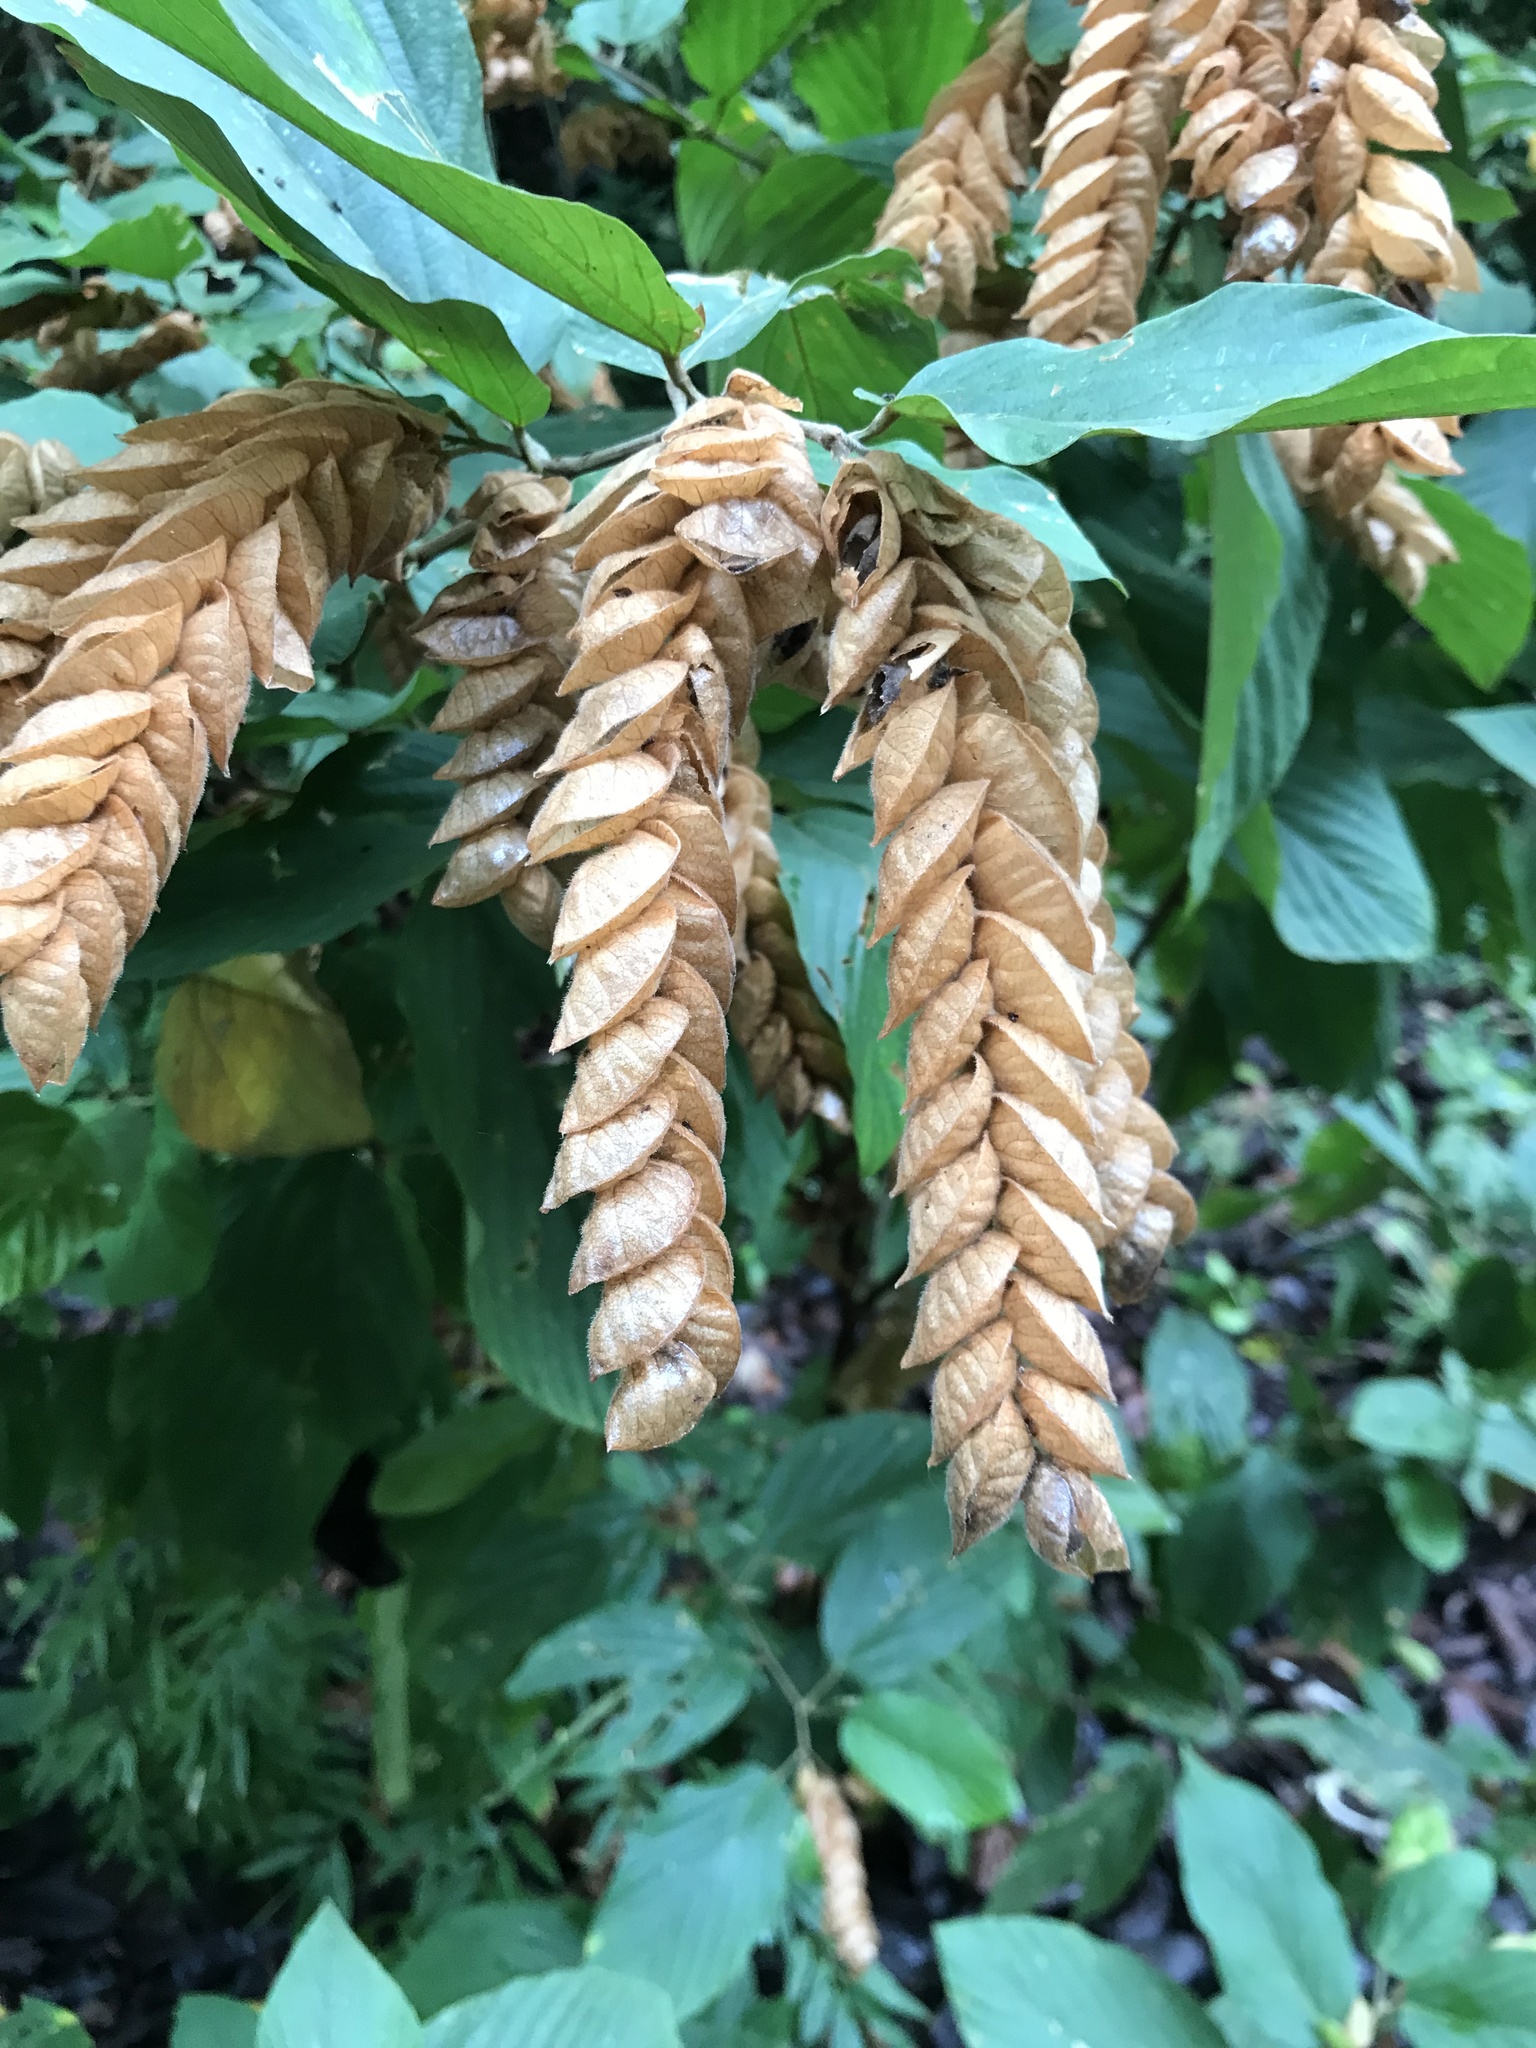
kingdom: Plantae
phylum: Tracheophyta
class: Magnoliopsida
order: Fabales
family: Fabaceae
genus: Flemingia
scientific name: Flemingia strobilifera
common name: Wild hops
